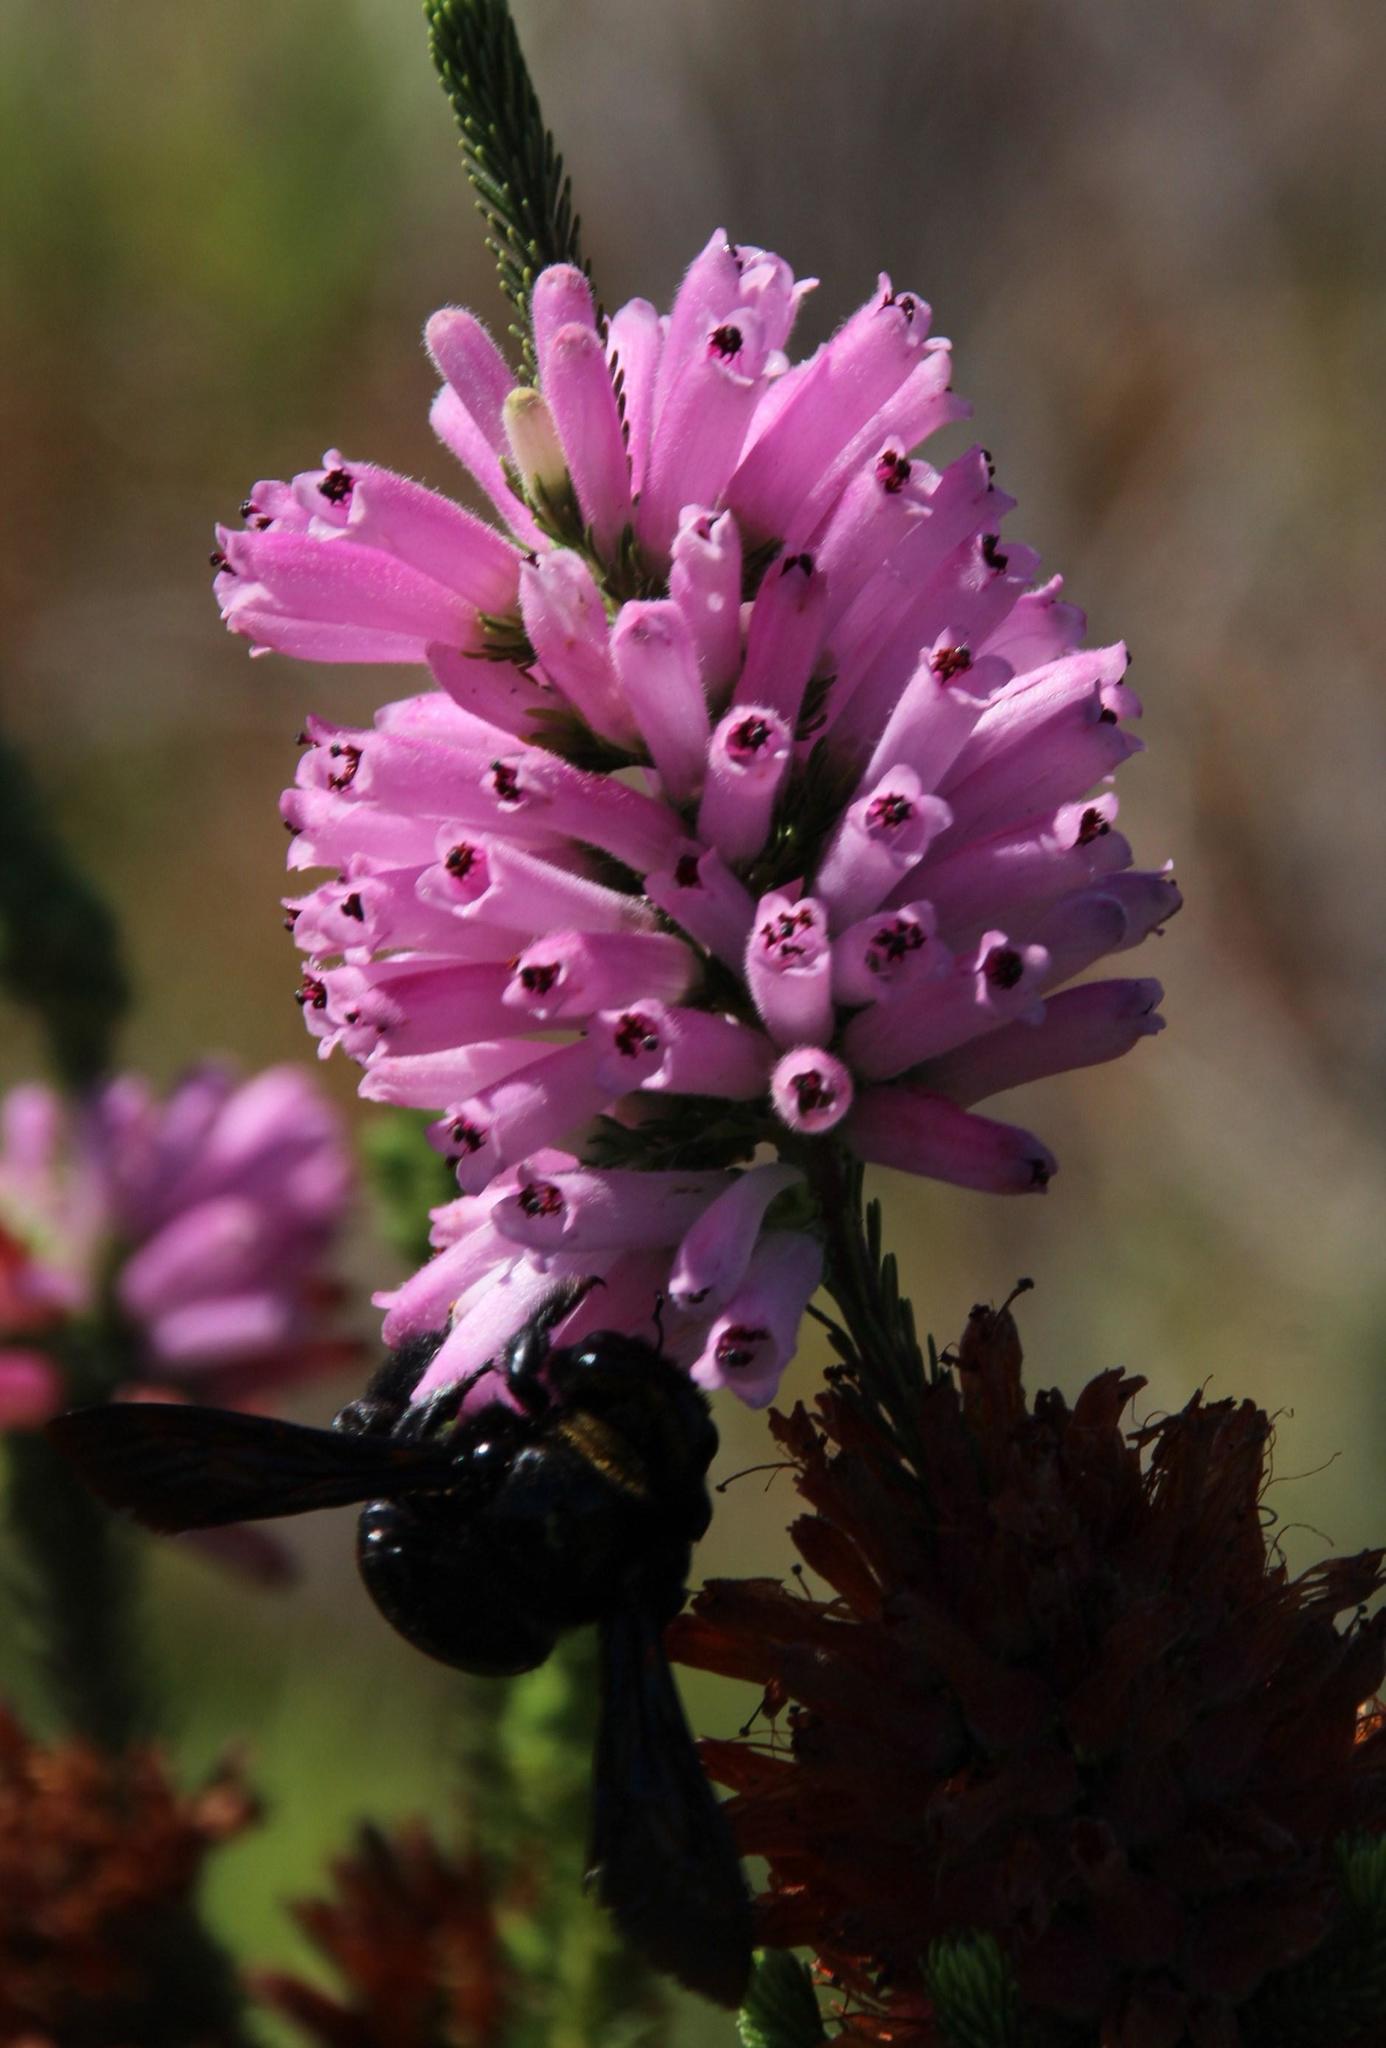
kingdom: Plantae
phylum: Tracheophyta
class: Magnoliopsida
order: Ericales
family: Ericaceae
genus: Erica
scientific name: Erica verticillata
